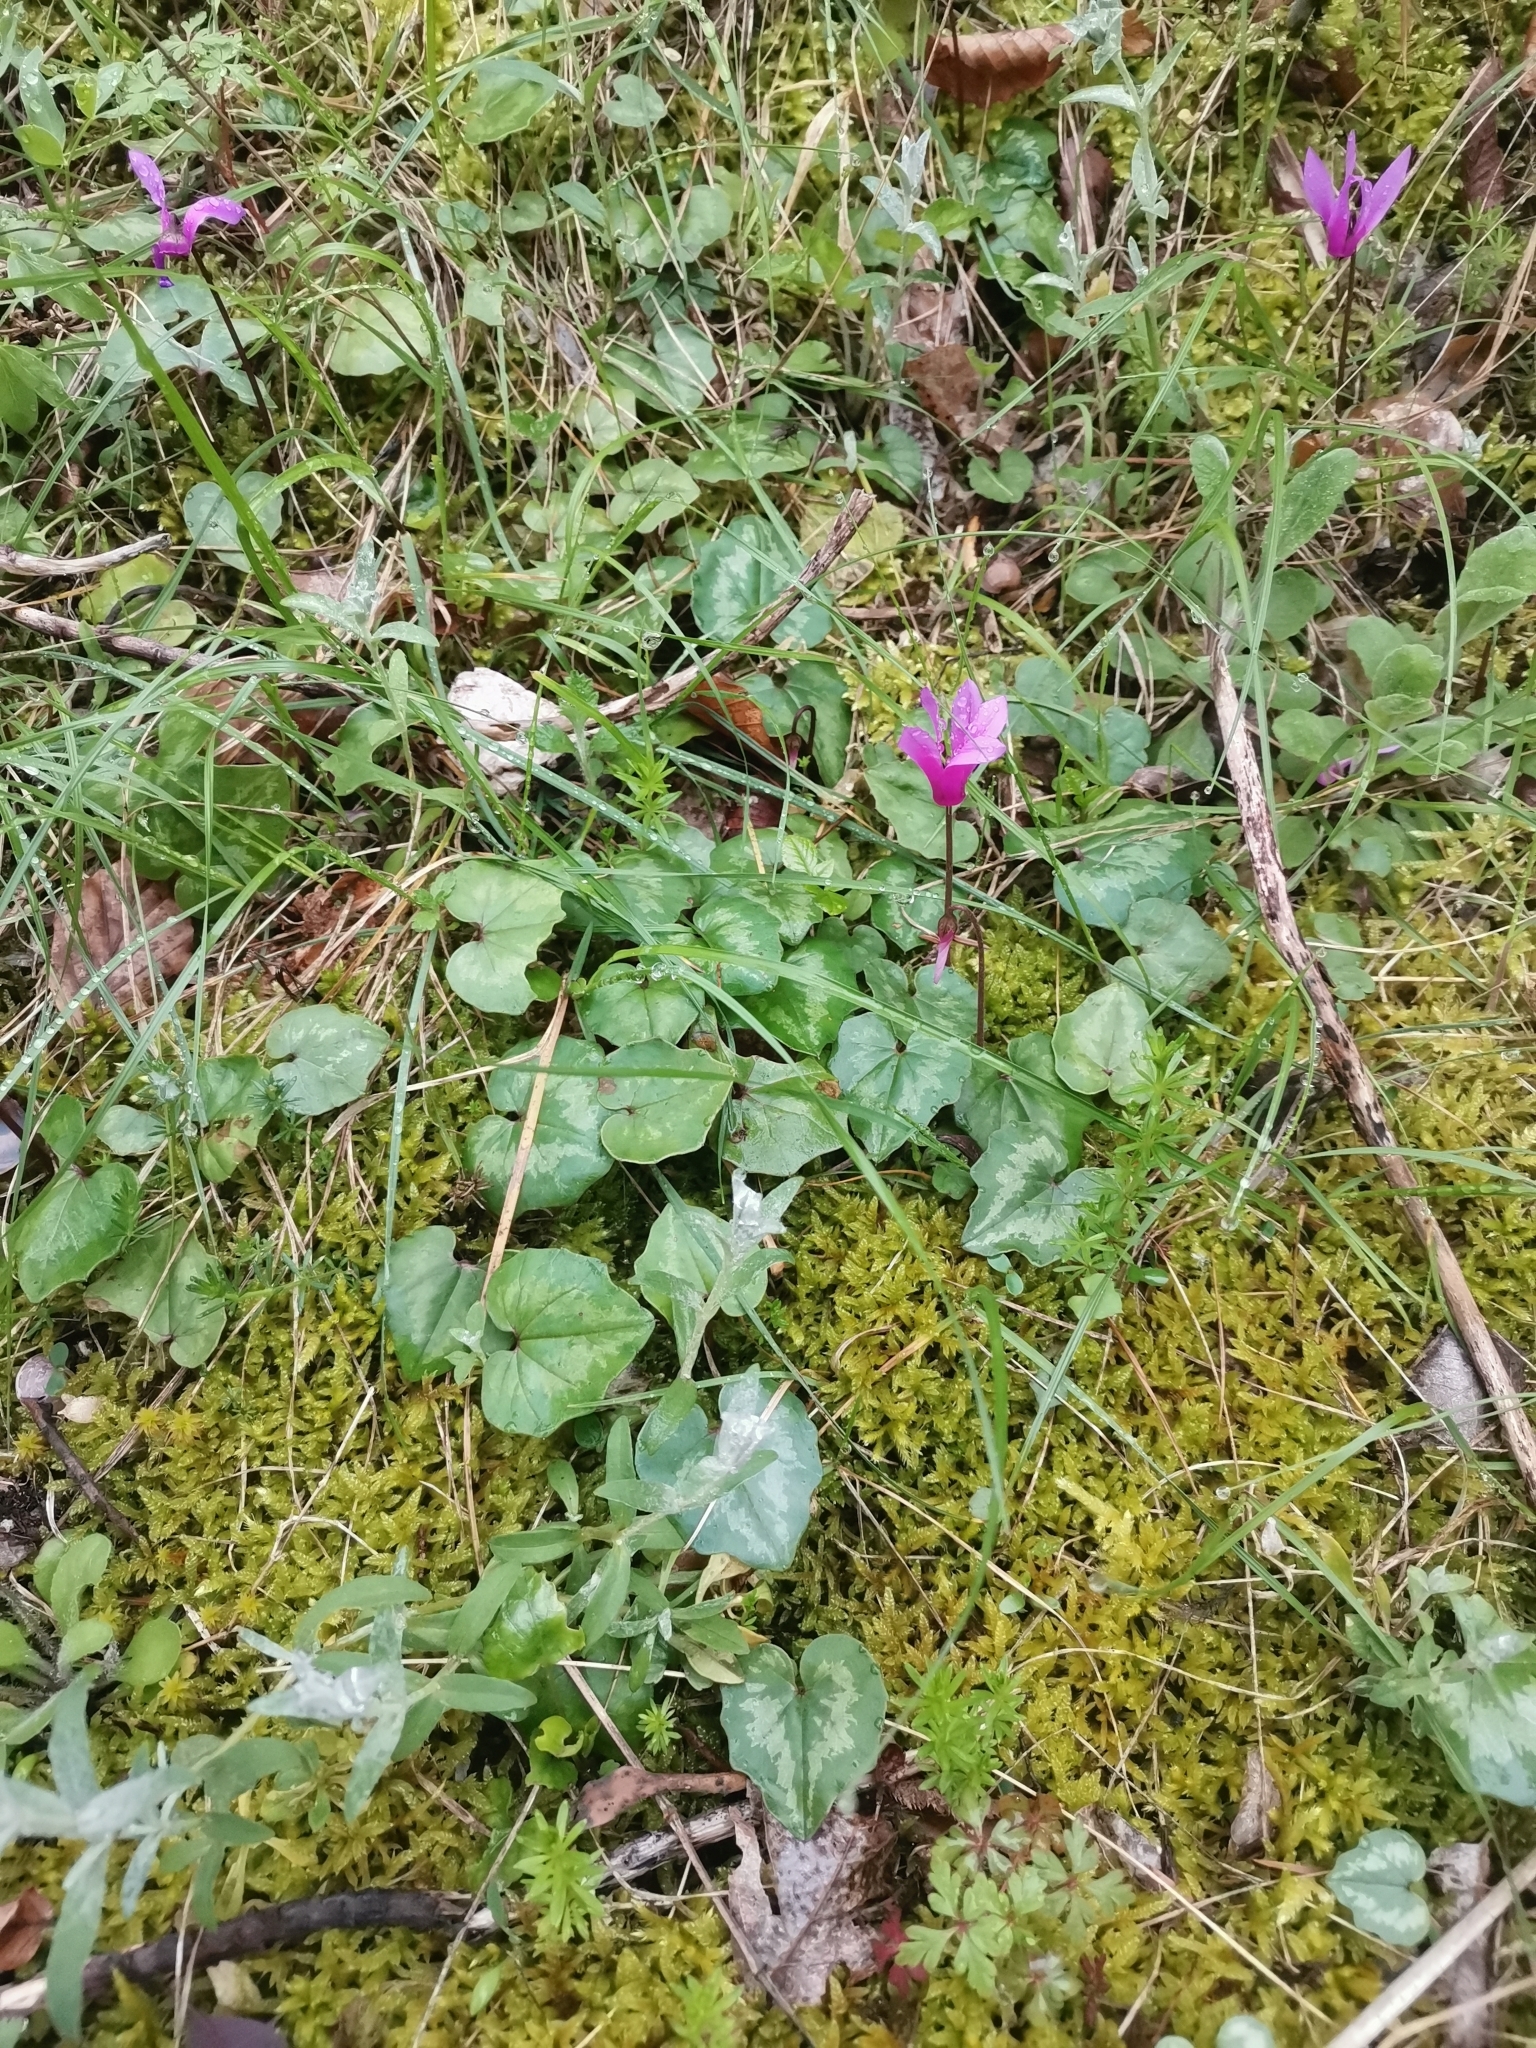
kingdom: Plantae
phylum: Tracheophyta
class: Magnoliopsida
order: Ericales
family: Primulaceae
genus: Cyclamen
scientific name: Cyclamen repandum
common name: Spring sowbread
